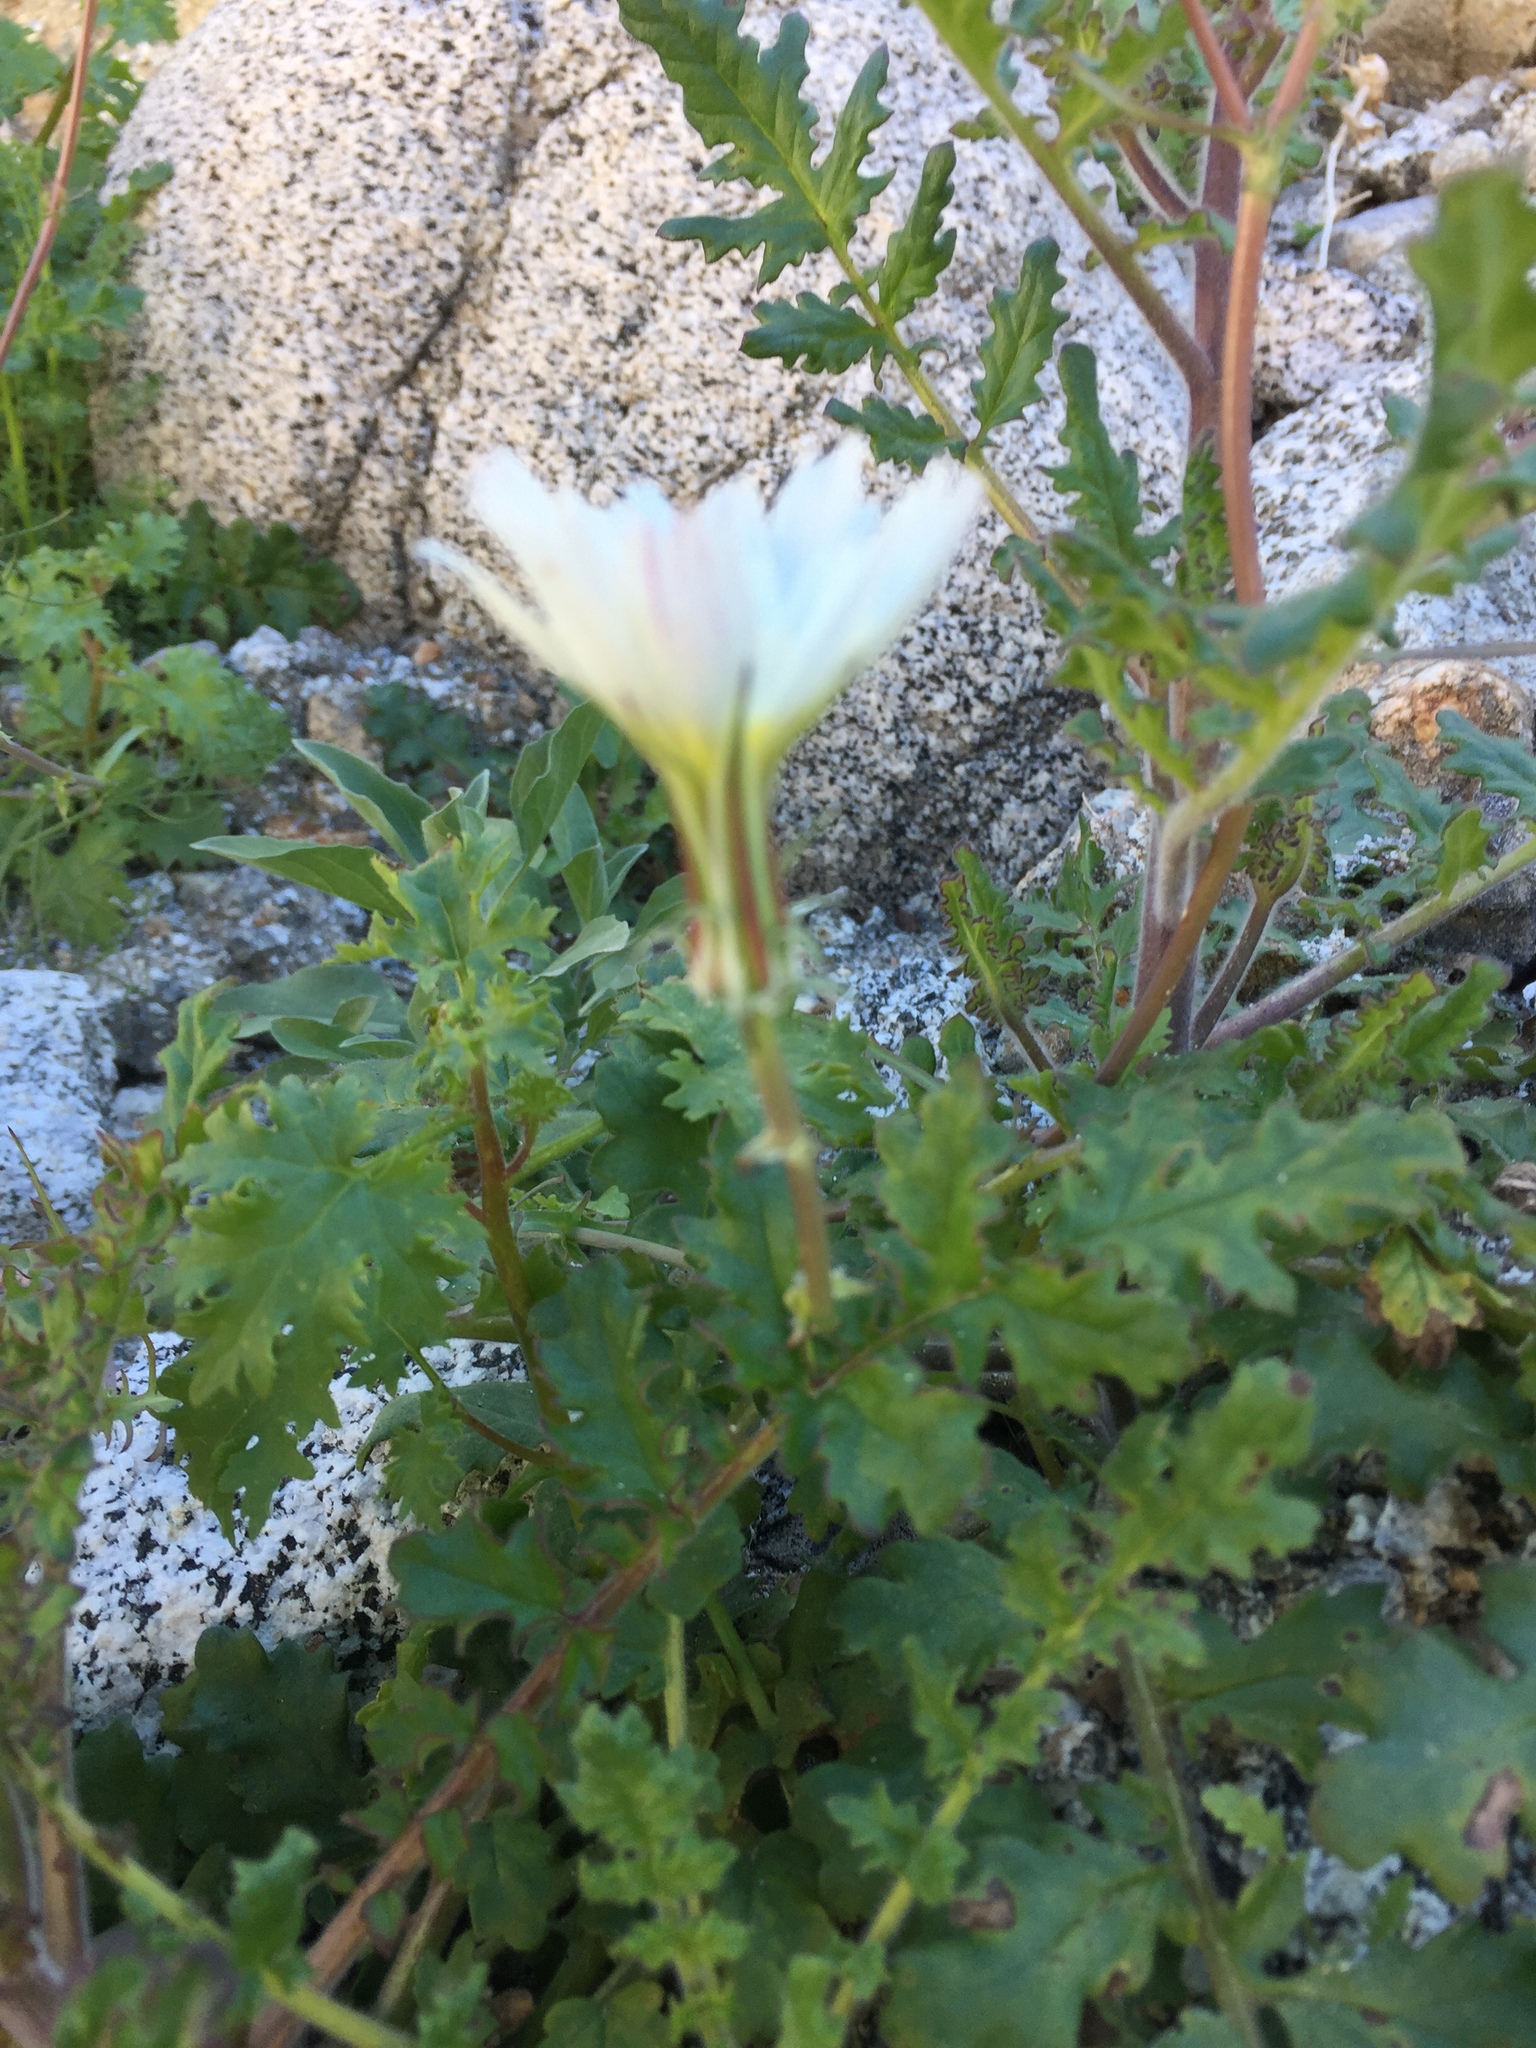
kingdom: Plantae
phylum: Tracheophyta
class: Magnoliopsida
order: Asterales
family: Asteraceae
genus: Rafinesquia
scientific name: Rafinesquia neomexicana
